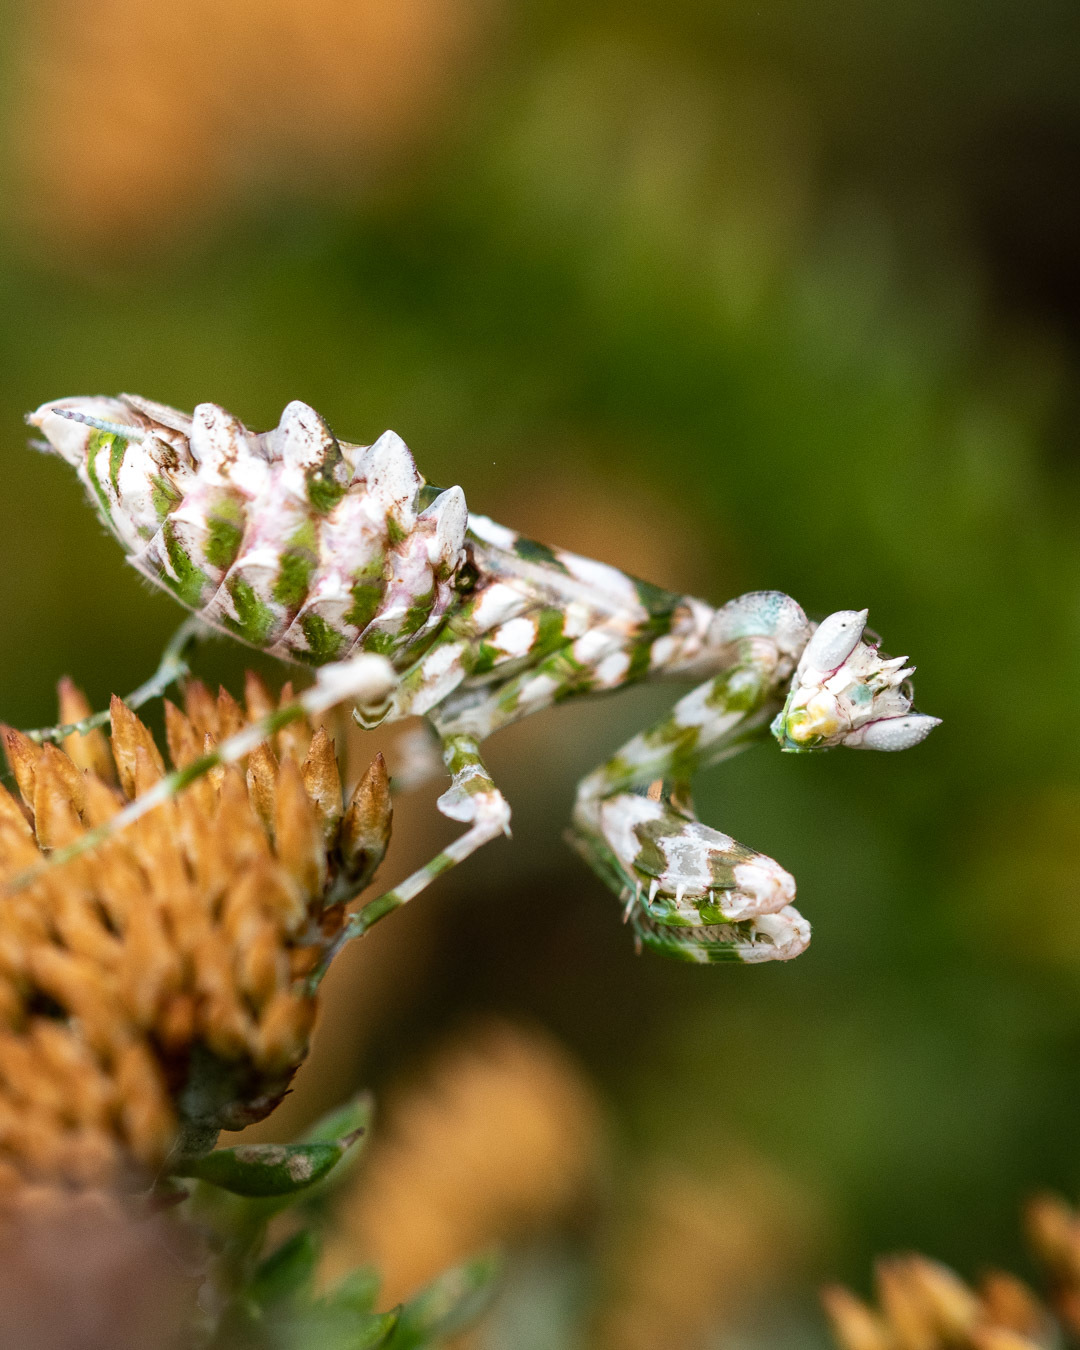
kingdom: Animalia
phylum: Arthropoda
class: Insecta
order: Mantodea
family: Galinthiadidae
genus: Harpagomantis
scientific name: Harpagomantis tricolor
